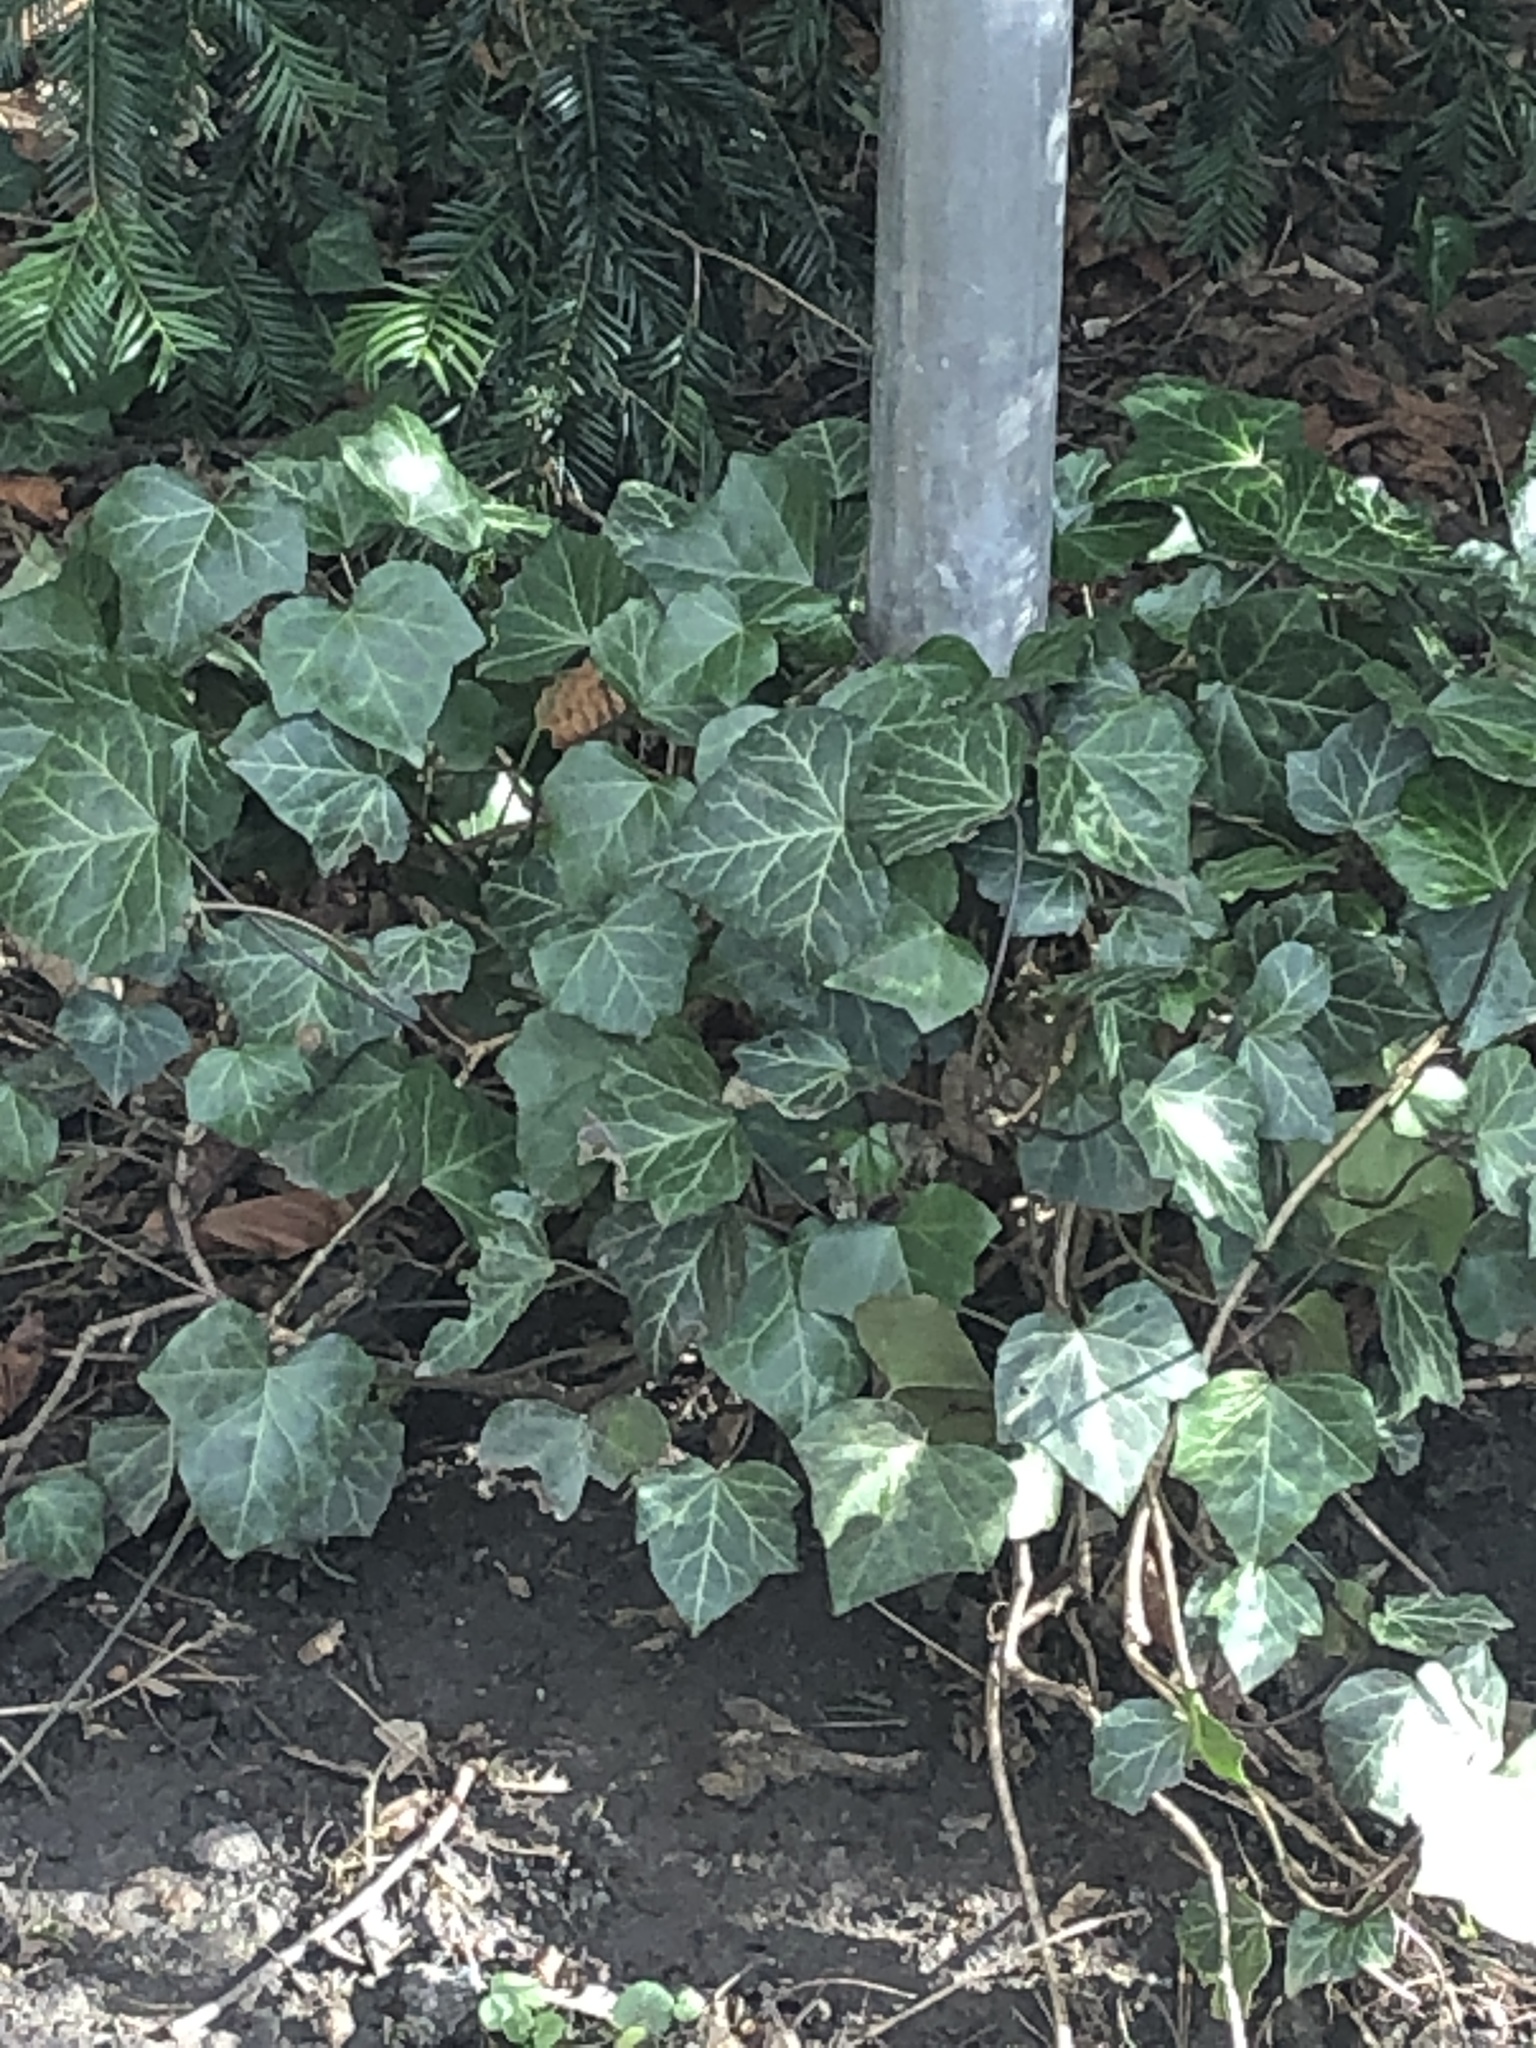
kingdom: Plantae
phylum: Tracheophyta
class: Magnoliopsida
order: Apiales
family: Araliaceae
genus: Hedera
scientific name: Hedera helix
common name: Ivy
